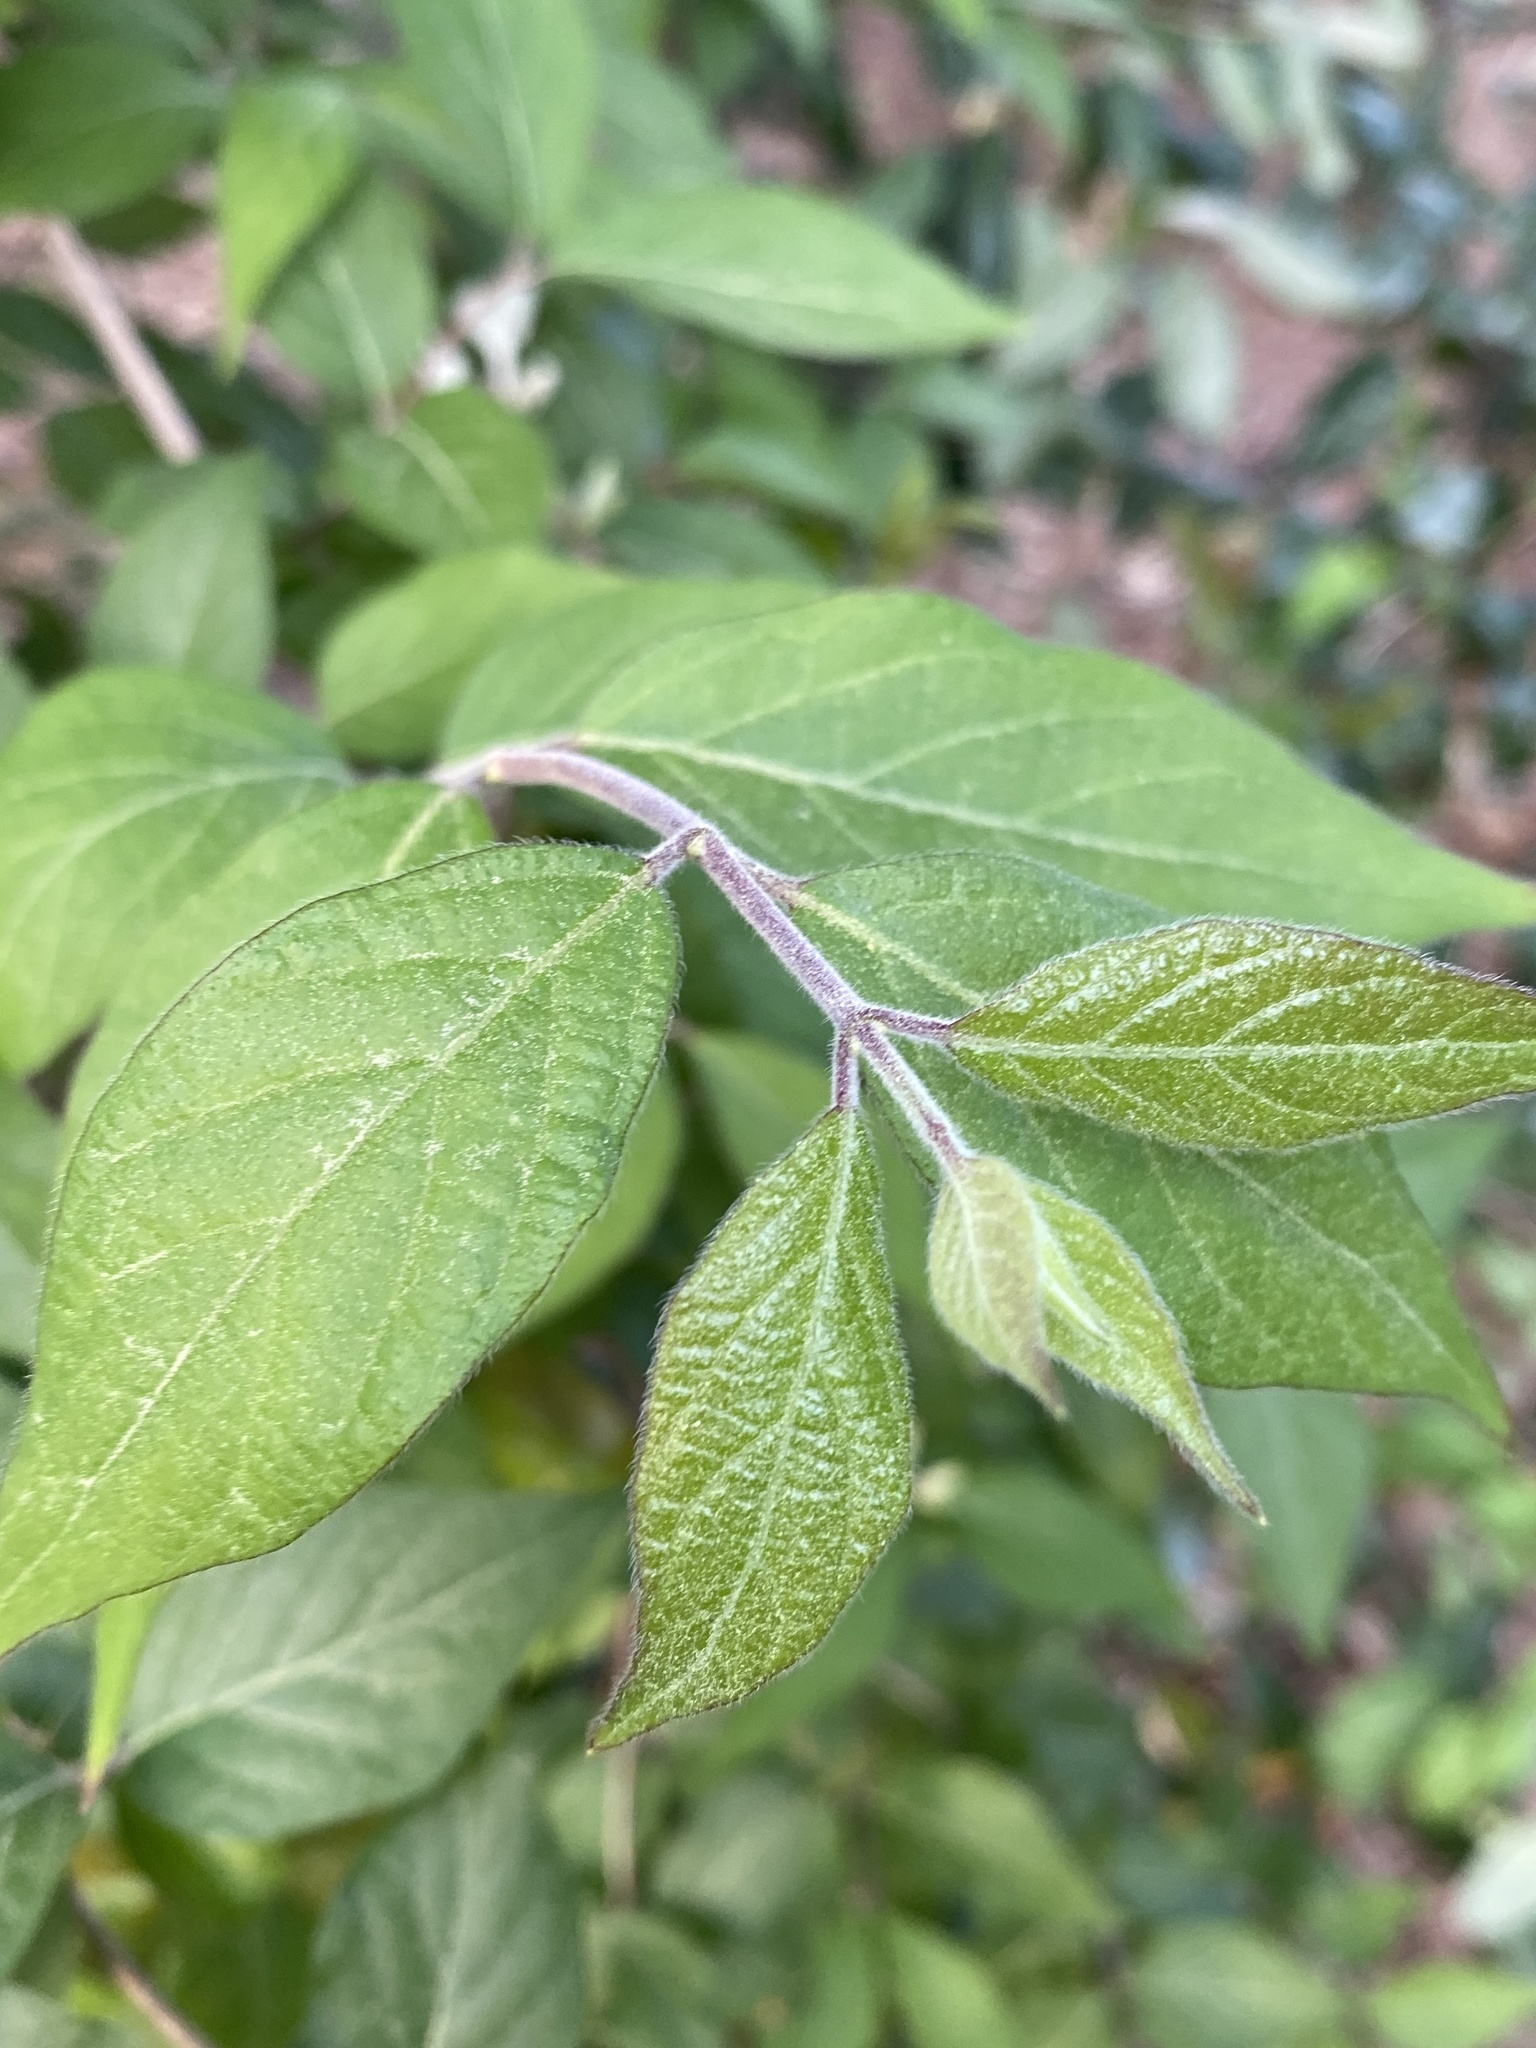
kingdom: Plantae
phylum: Tracheophyta
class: Magnoliopsida
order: Dipsacales
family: Caprifoliaceae
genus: Lonicera
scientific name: Lonicera maackii
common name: Amur honeysuckle
